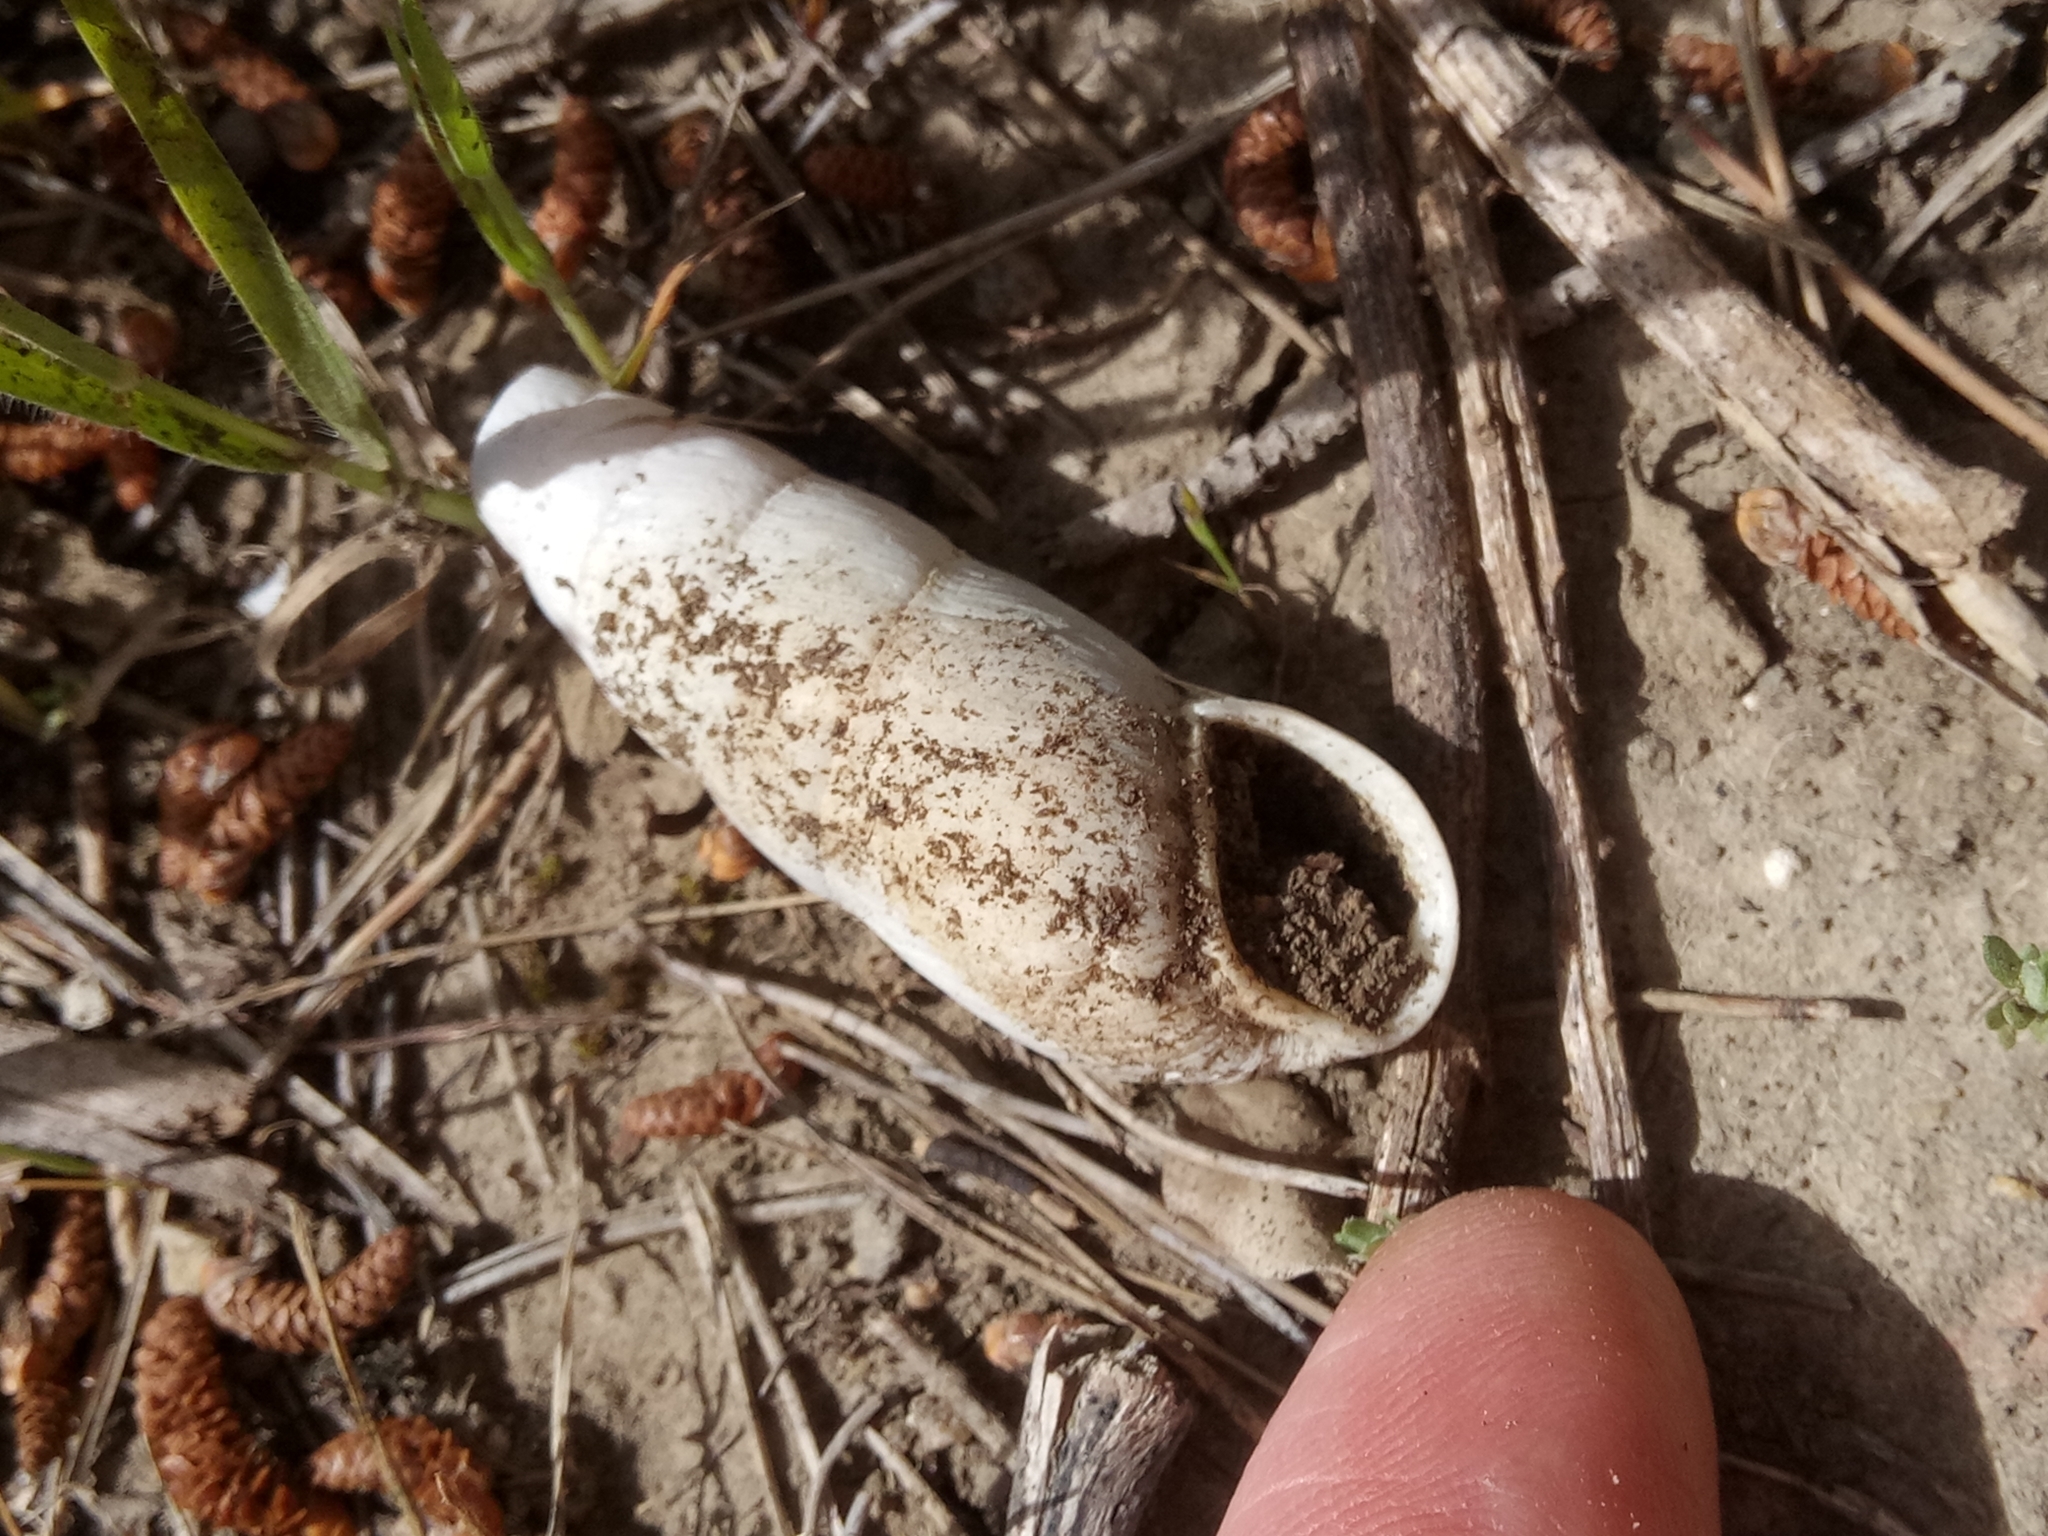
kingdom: Animalia
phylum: Mollusca
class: Gastropoda
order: Stylommatophora
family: Achatinidae
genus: Rumina
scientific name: Rumina decollata
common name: Decollate snail
